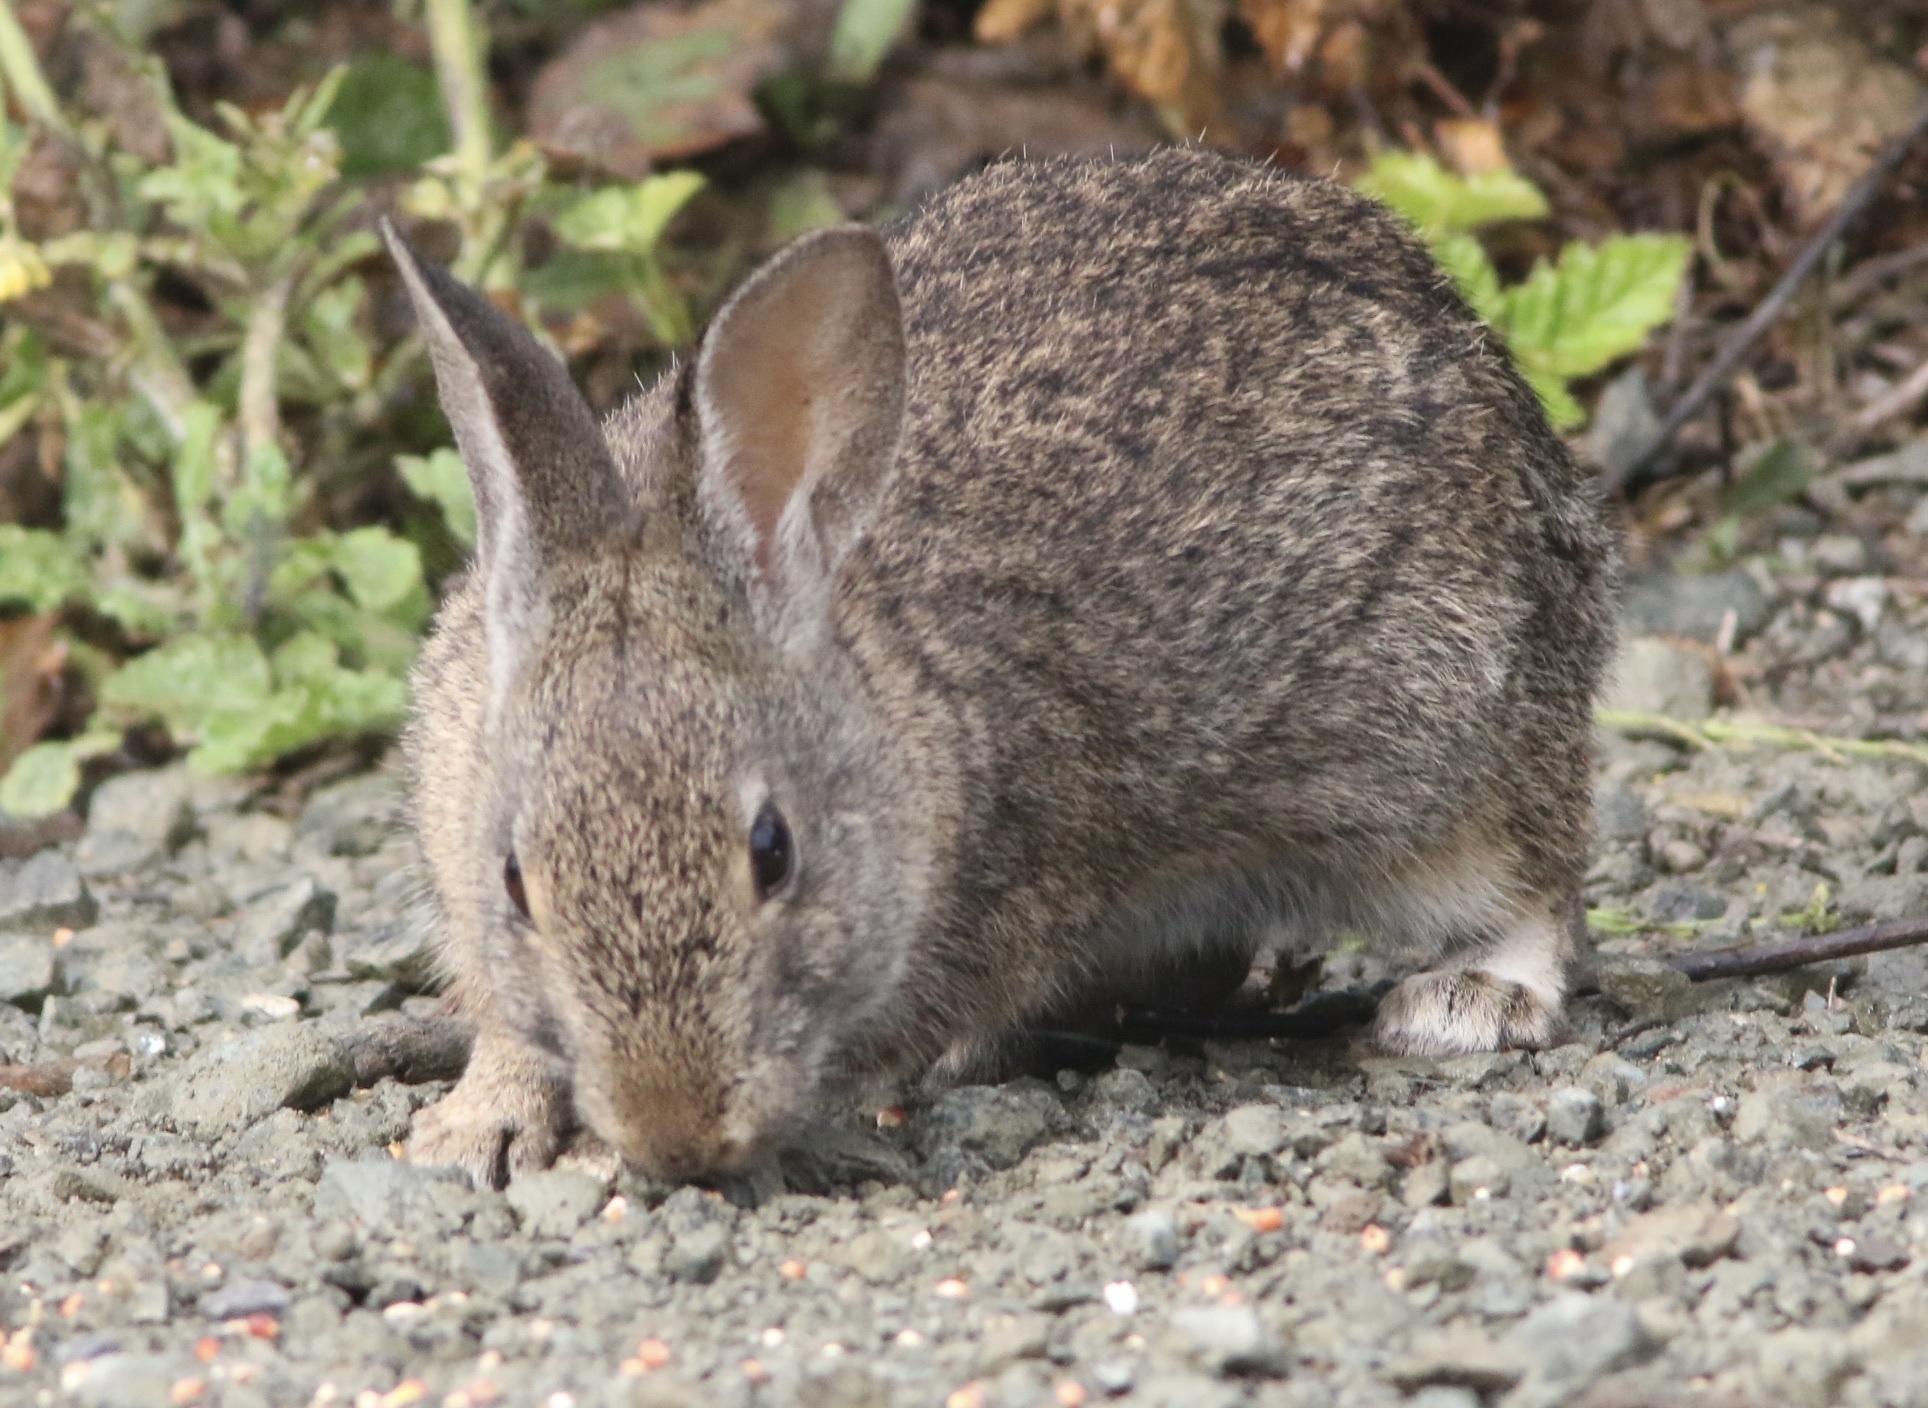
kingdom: Animalia
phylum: Chordata
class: Mammalia
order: Lagomorpha
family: Leporidae
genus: Sylvilagus
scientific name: Sylvilagus bachmani
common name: Brush rabbit
